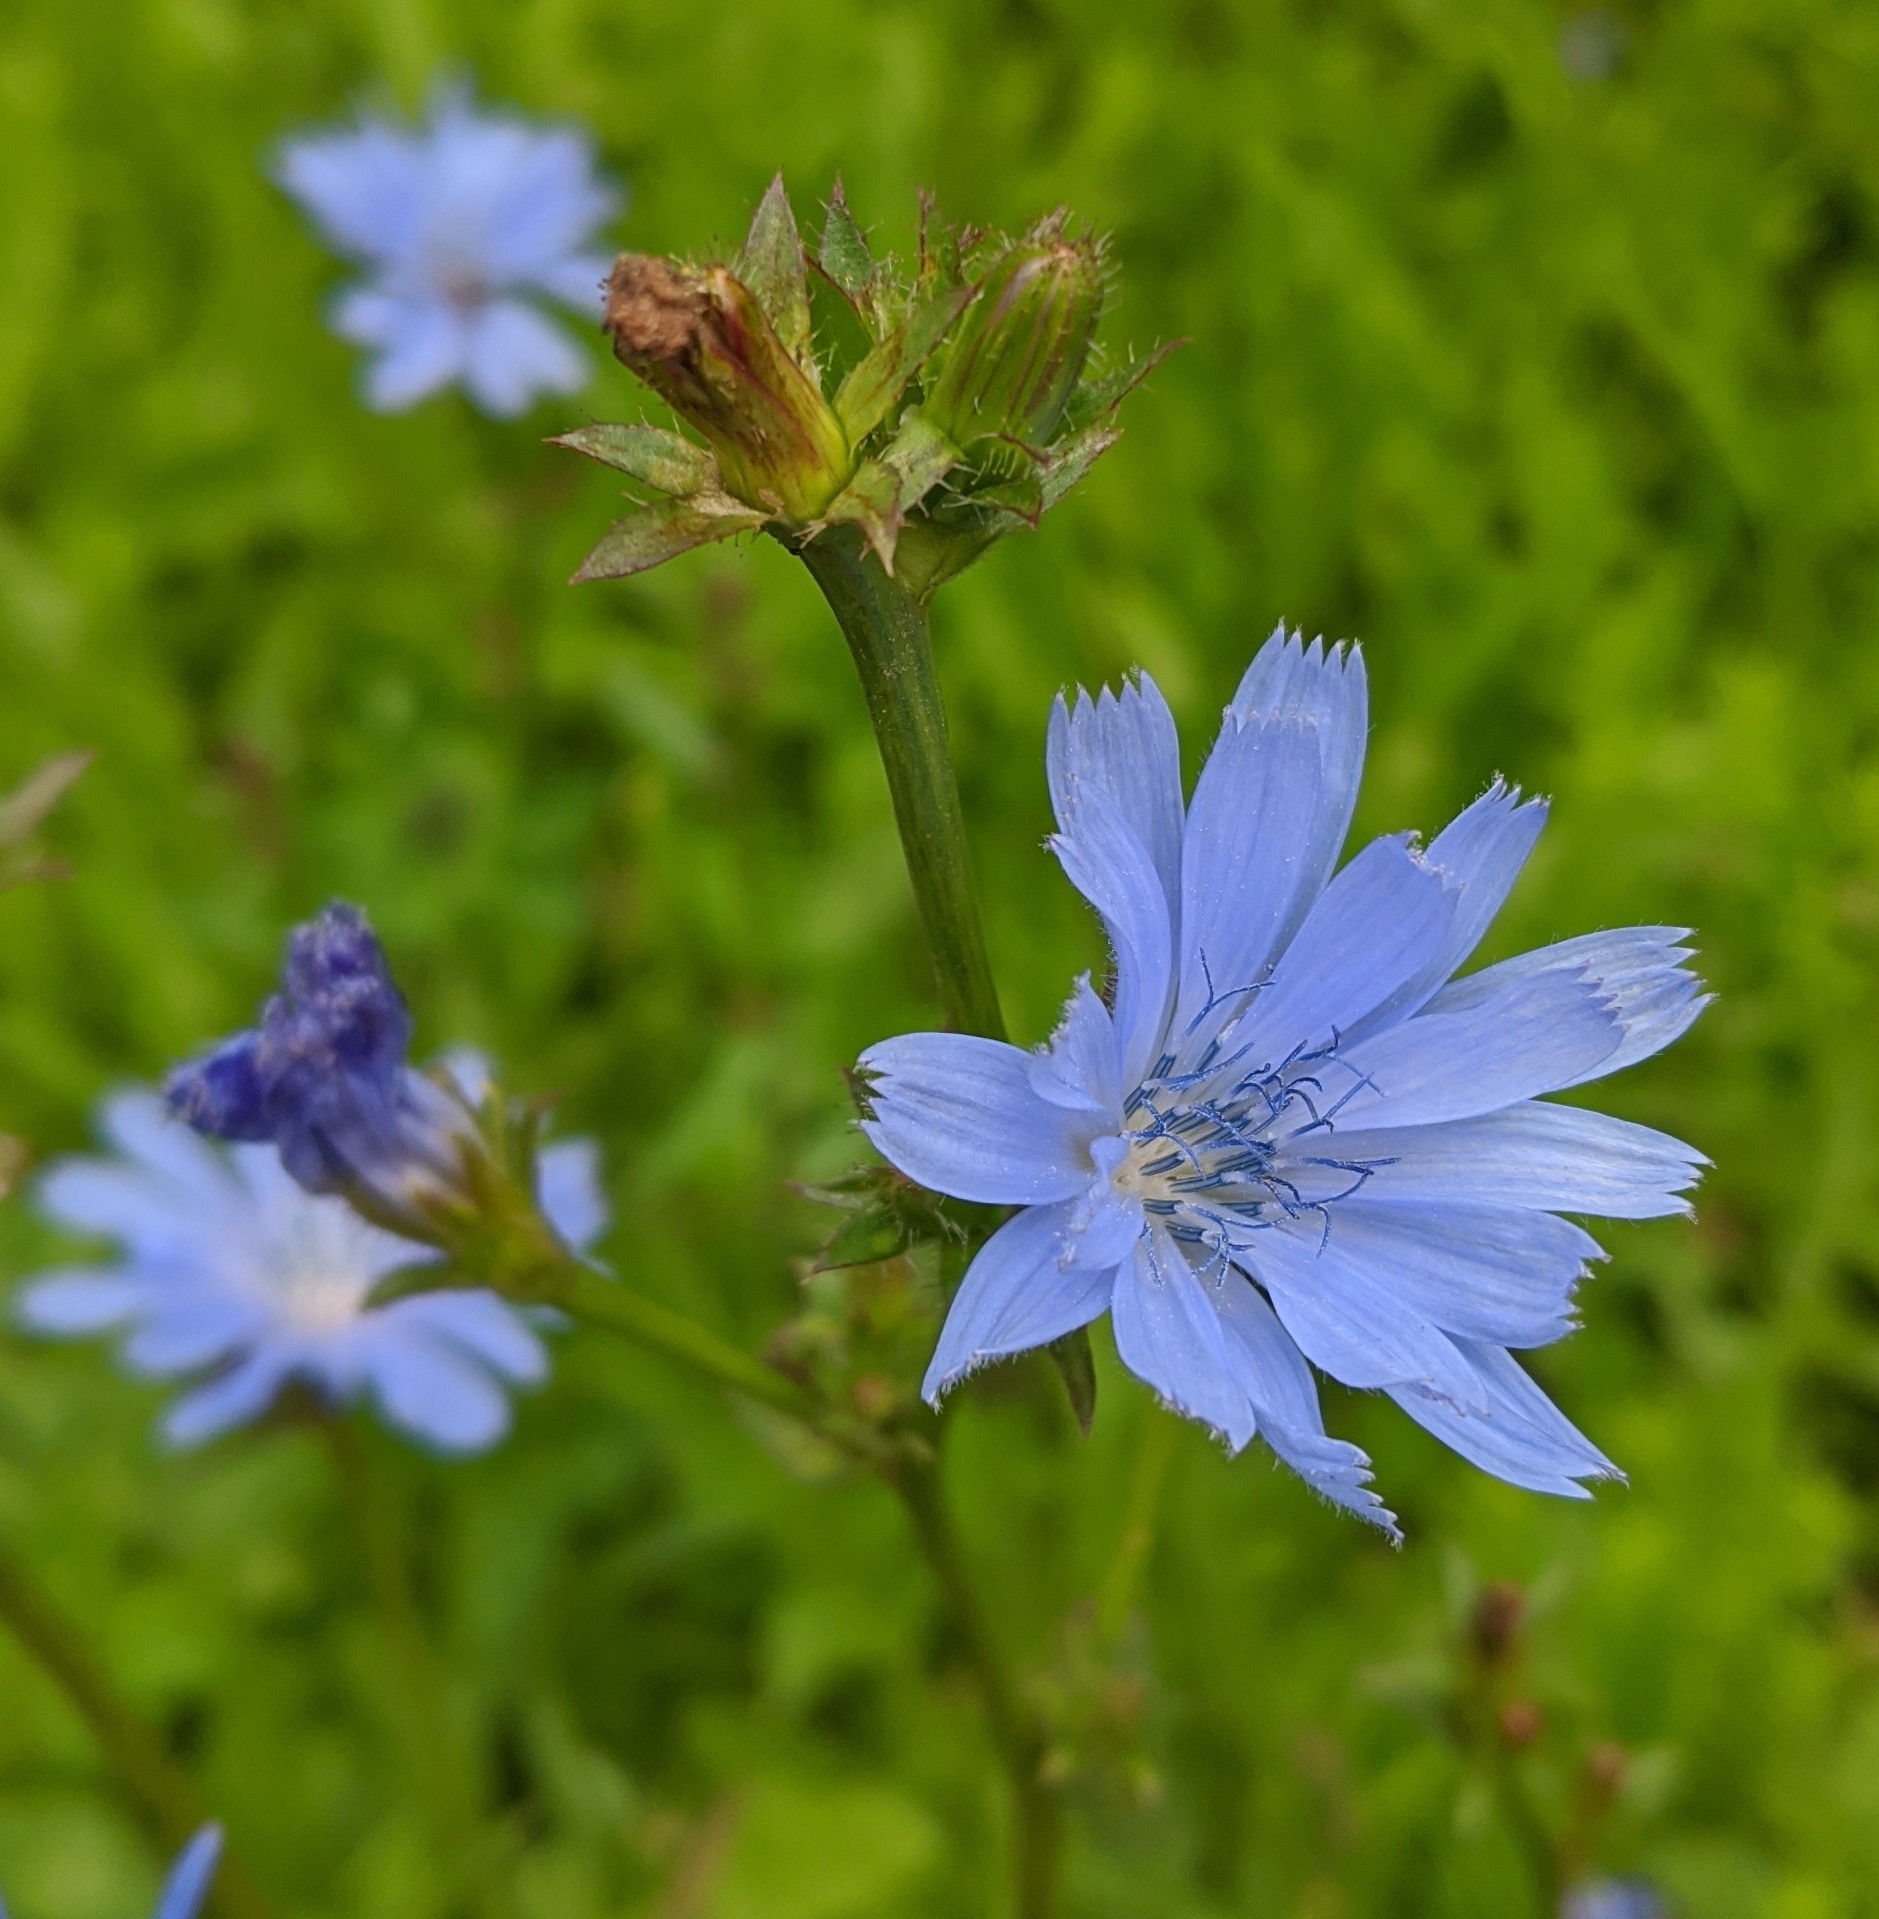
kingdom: Plantae
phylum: Tracheophyta
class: Magnoliopsida
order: Asterales
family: Asteraceae
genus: Cichorium
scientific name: Cichorium intybus
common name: Chicory
